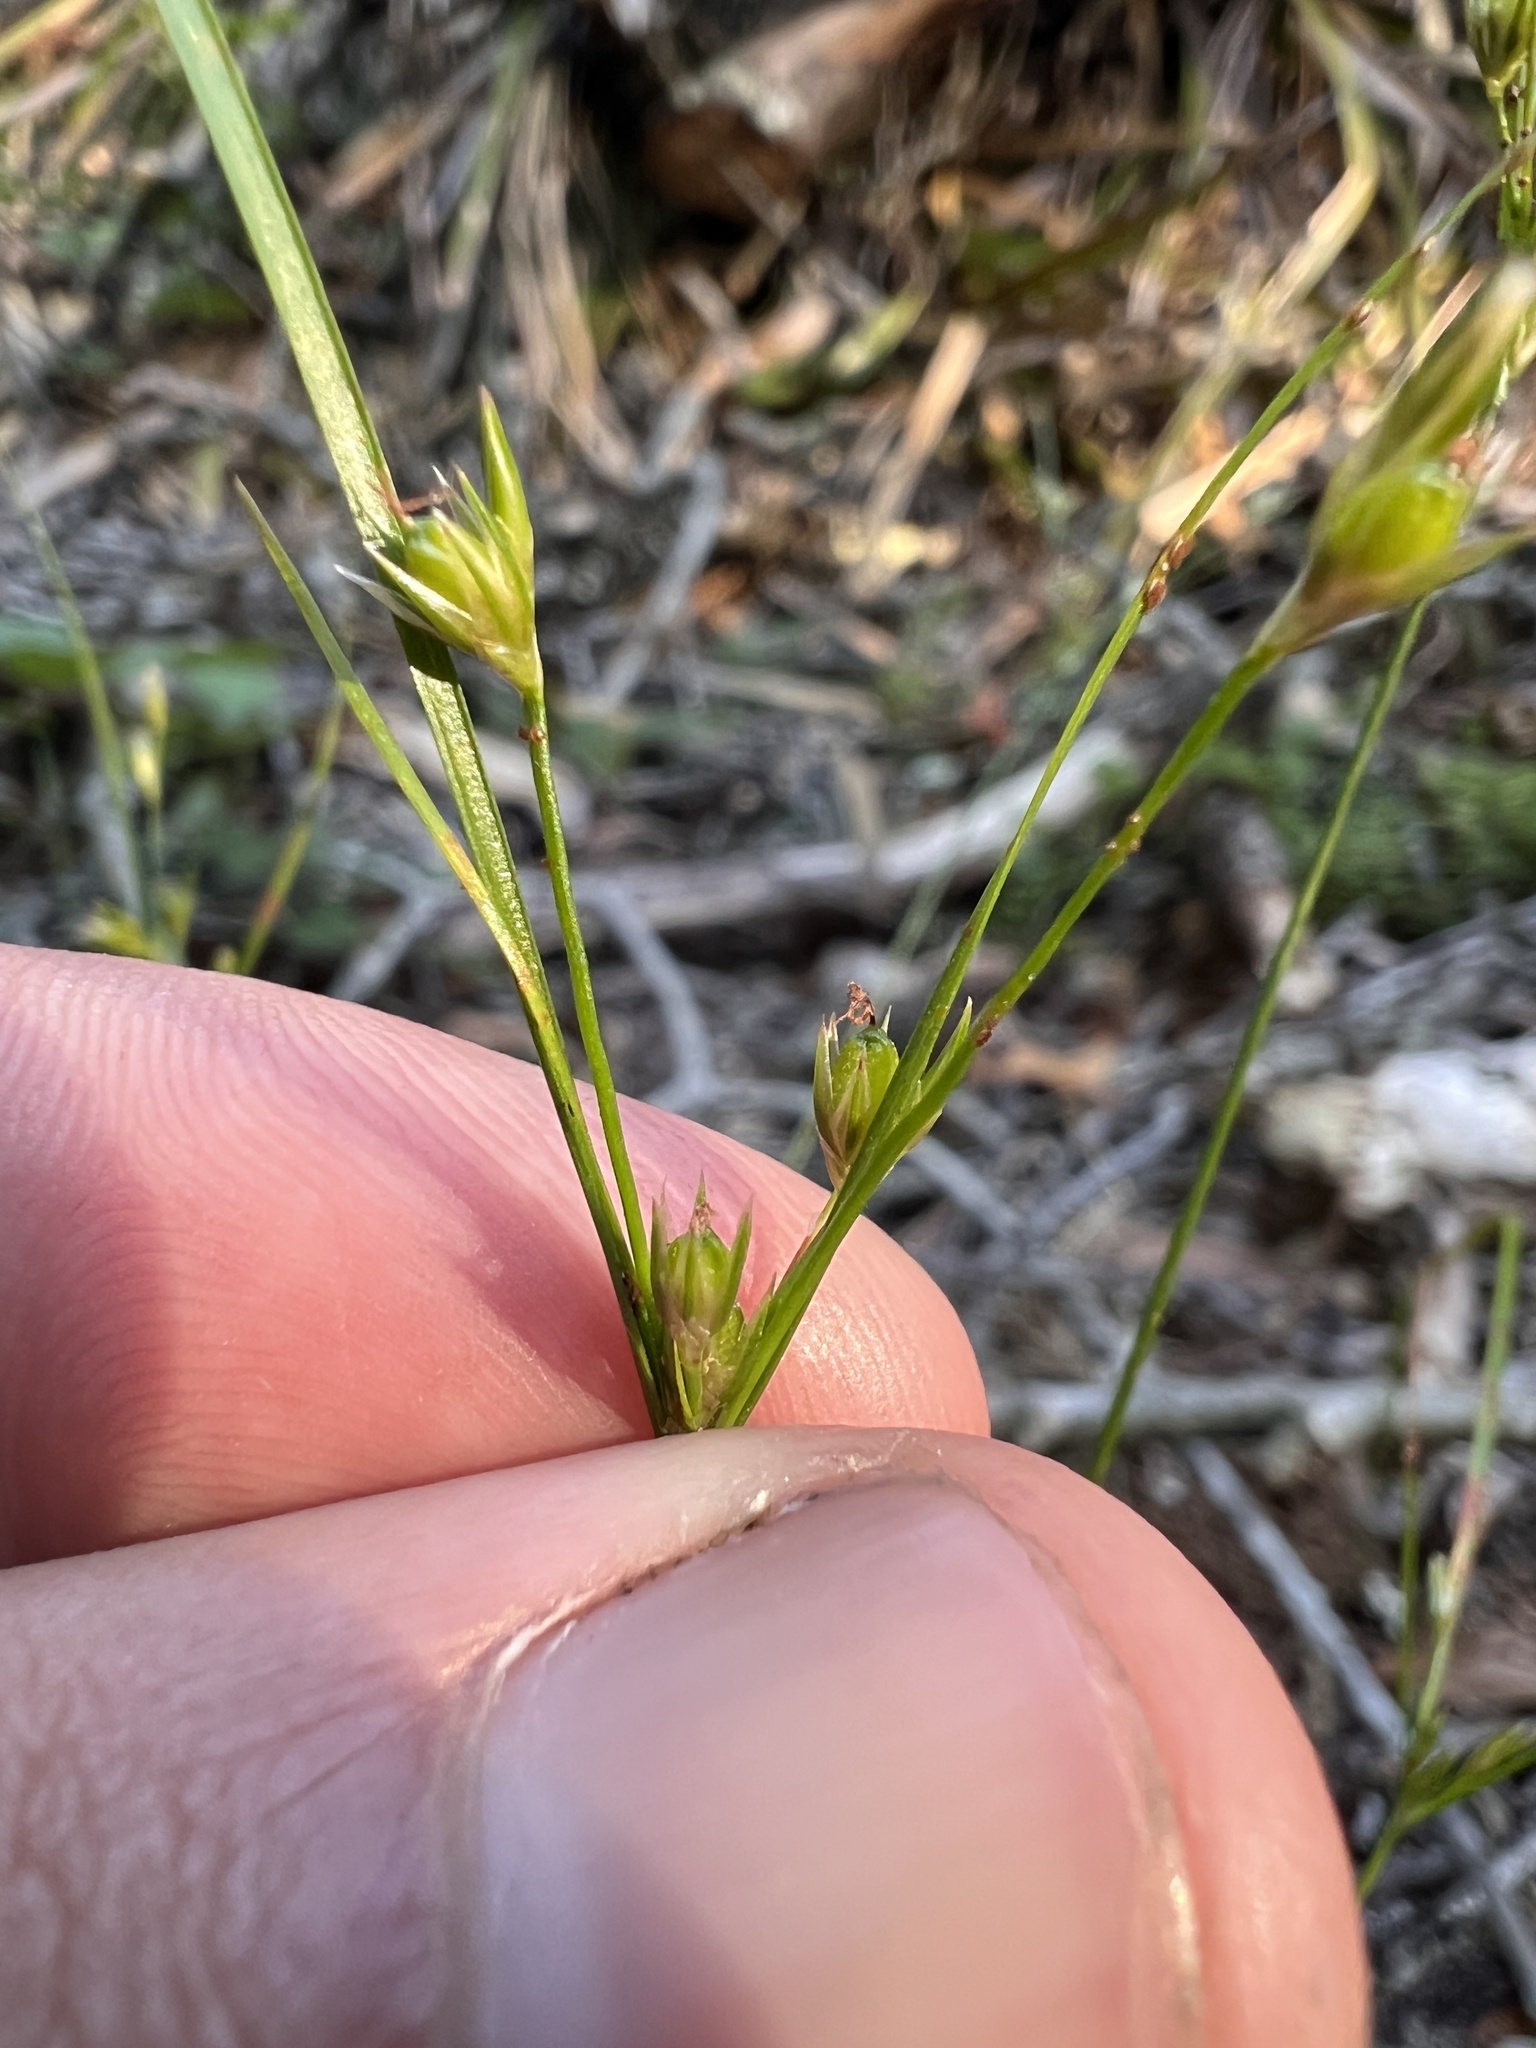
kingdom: Plantae
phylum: Tracheophyta
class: Liliopsida
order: Poales
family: Juncaceae
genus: Juncus
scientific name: Juncus tenuis
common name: Slender rush
